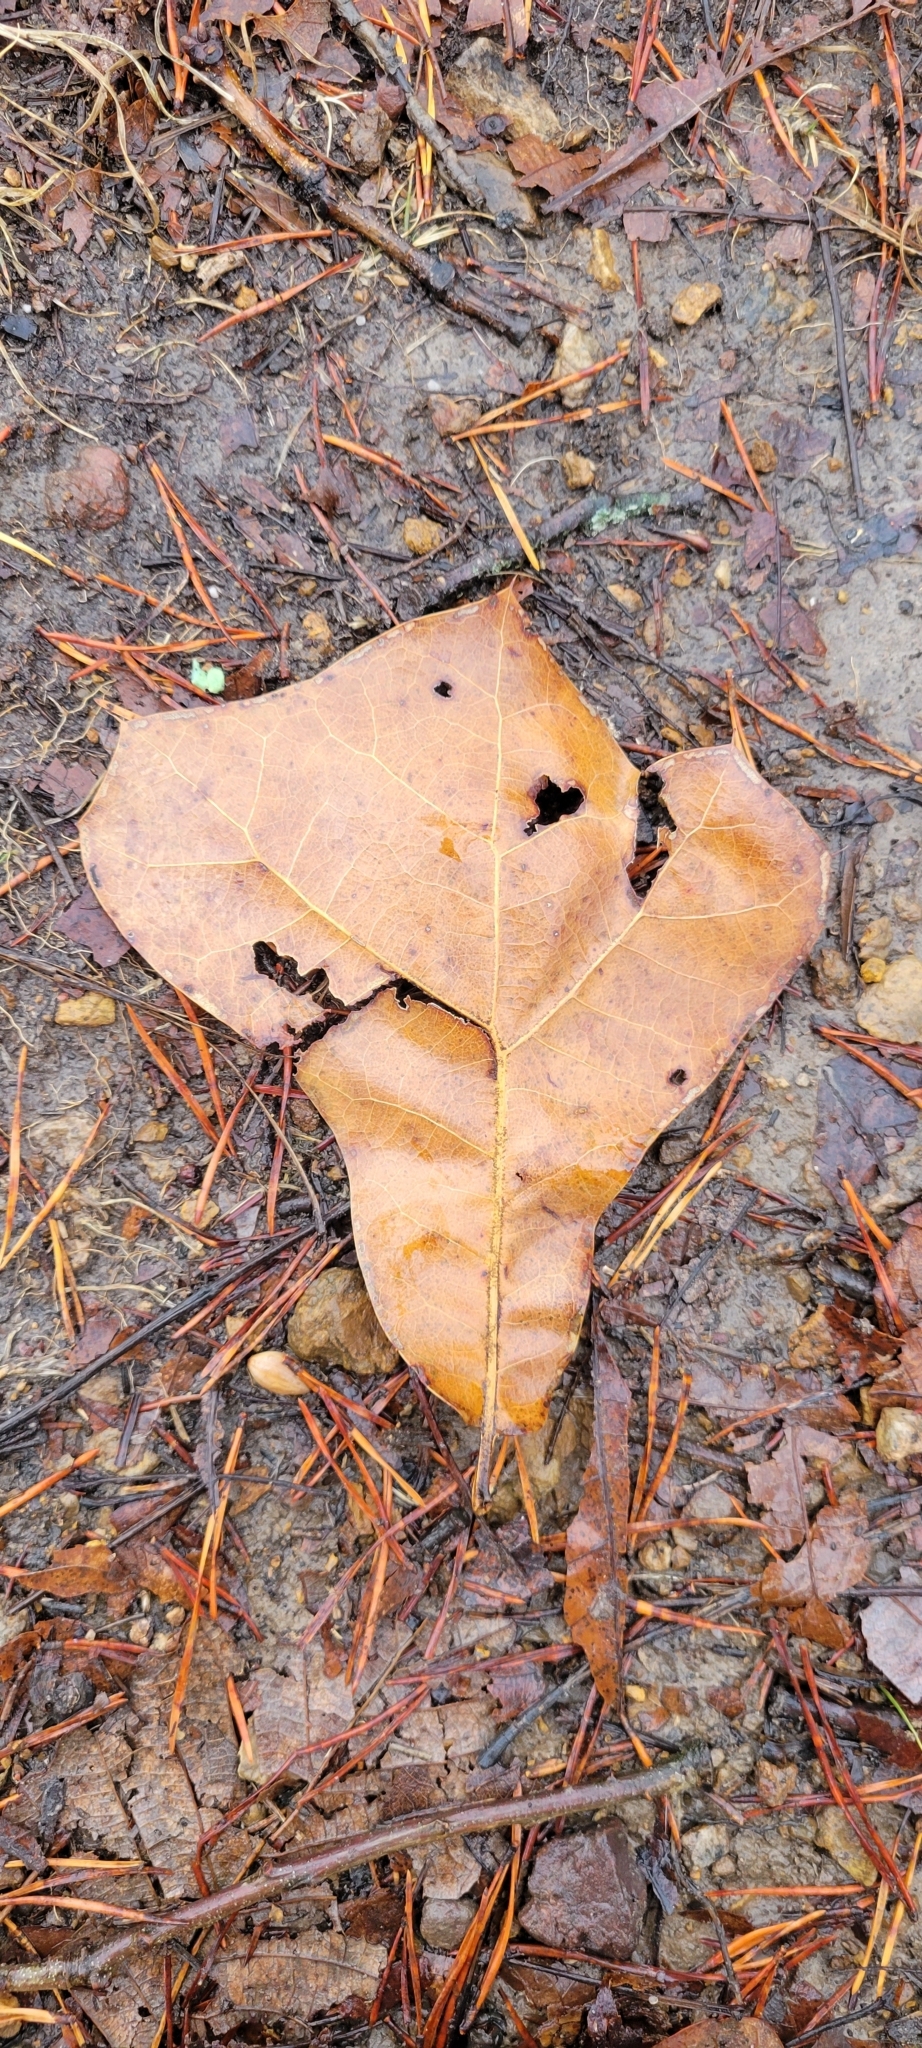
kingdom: Plantae
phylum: Tracheophyta
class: Magnoliopsida
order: Fagales
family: Fagaceae
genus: Quercus
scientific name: Quercus marilandica
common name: Blackjack oak
